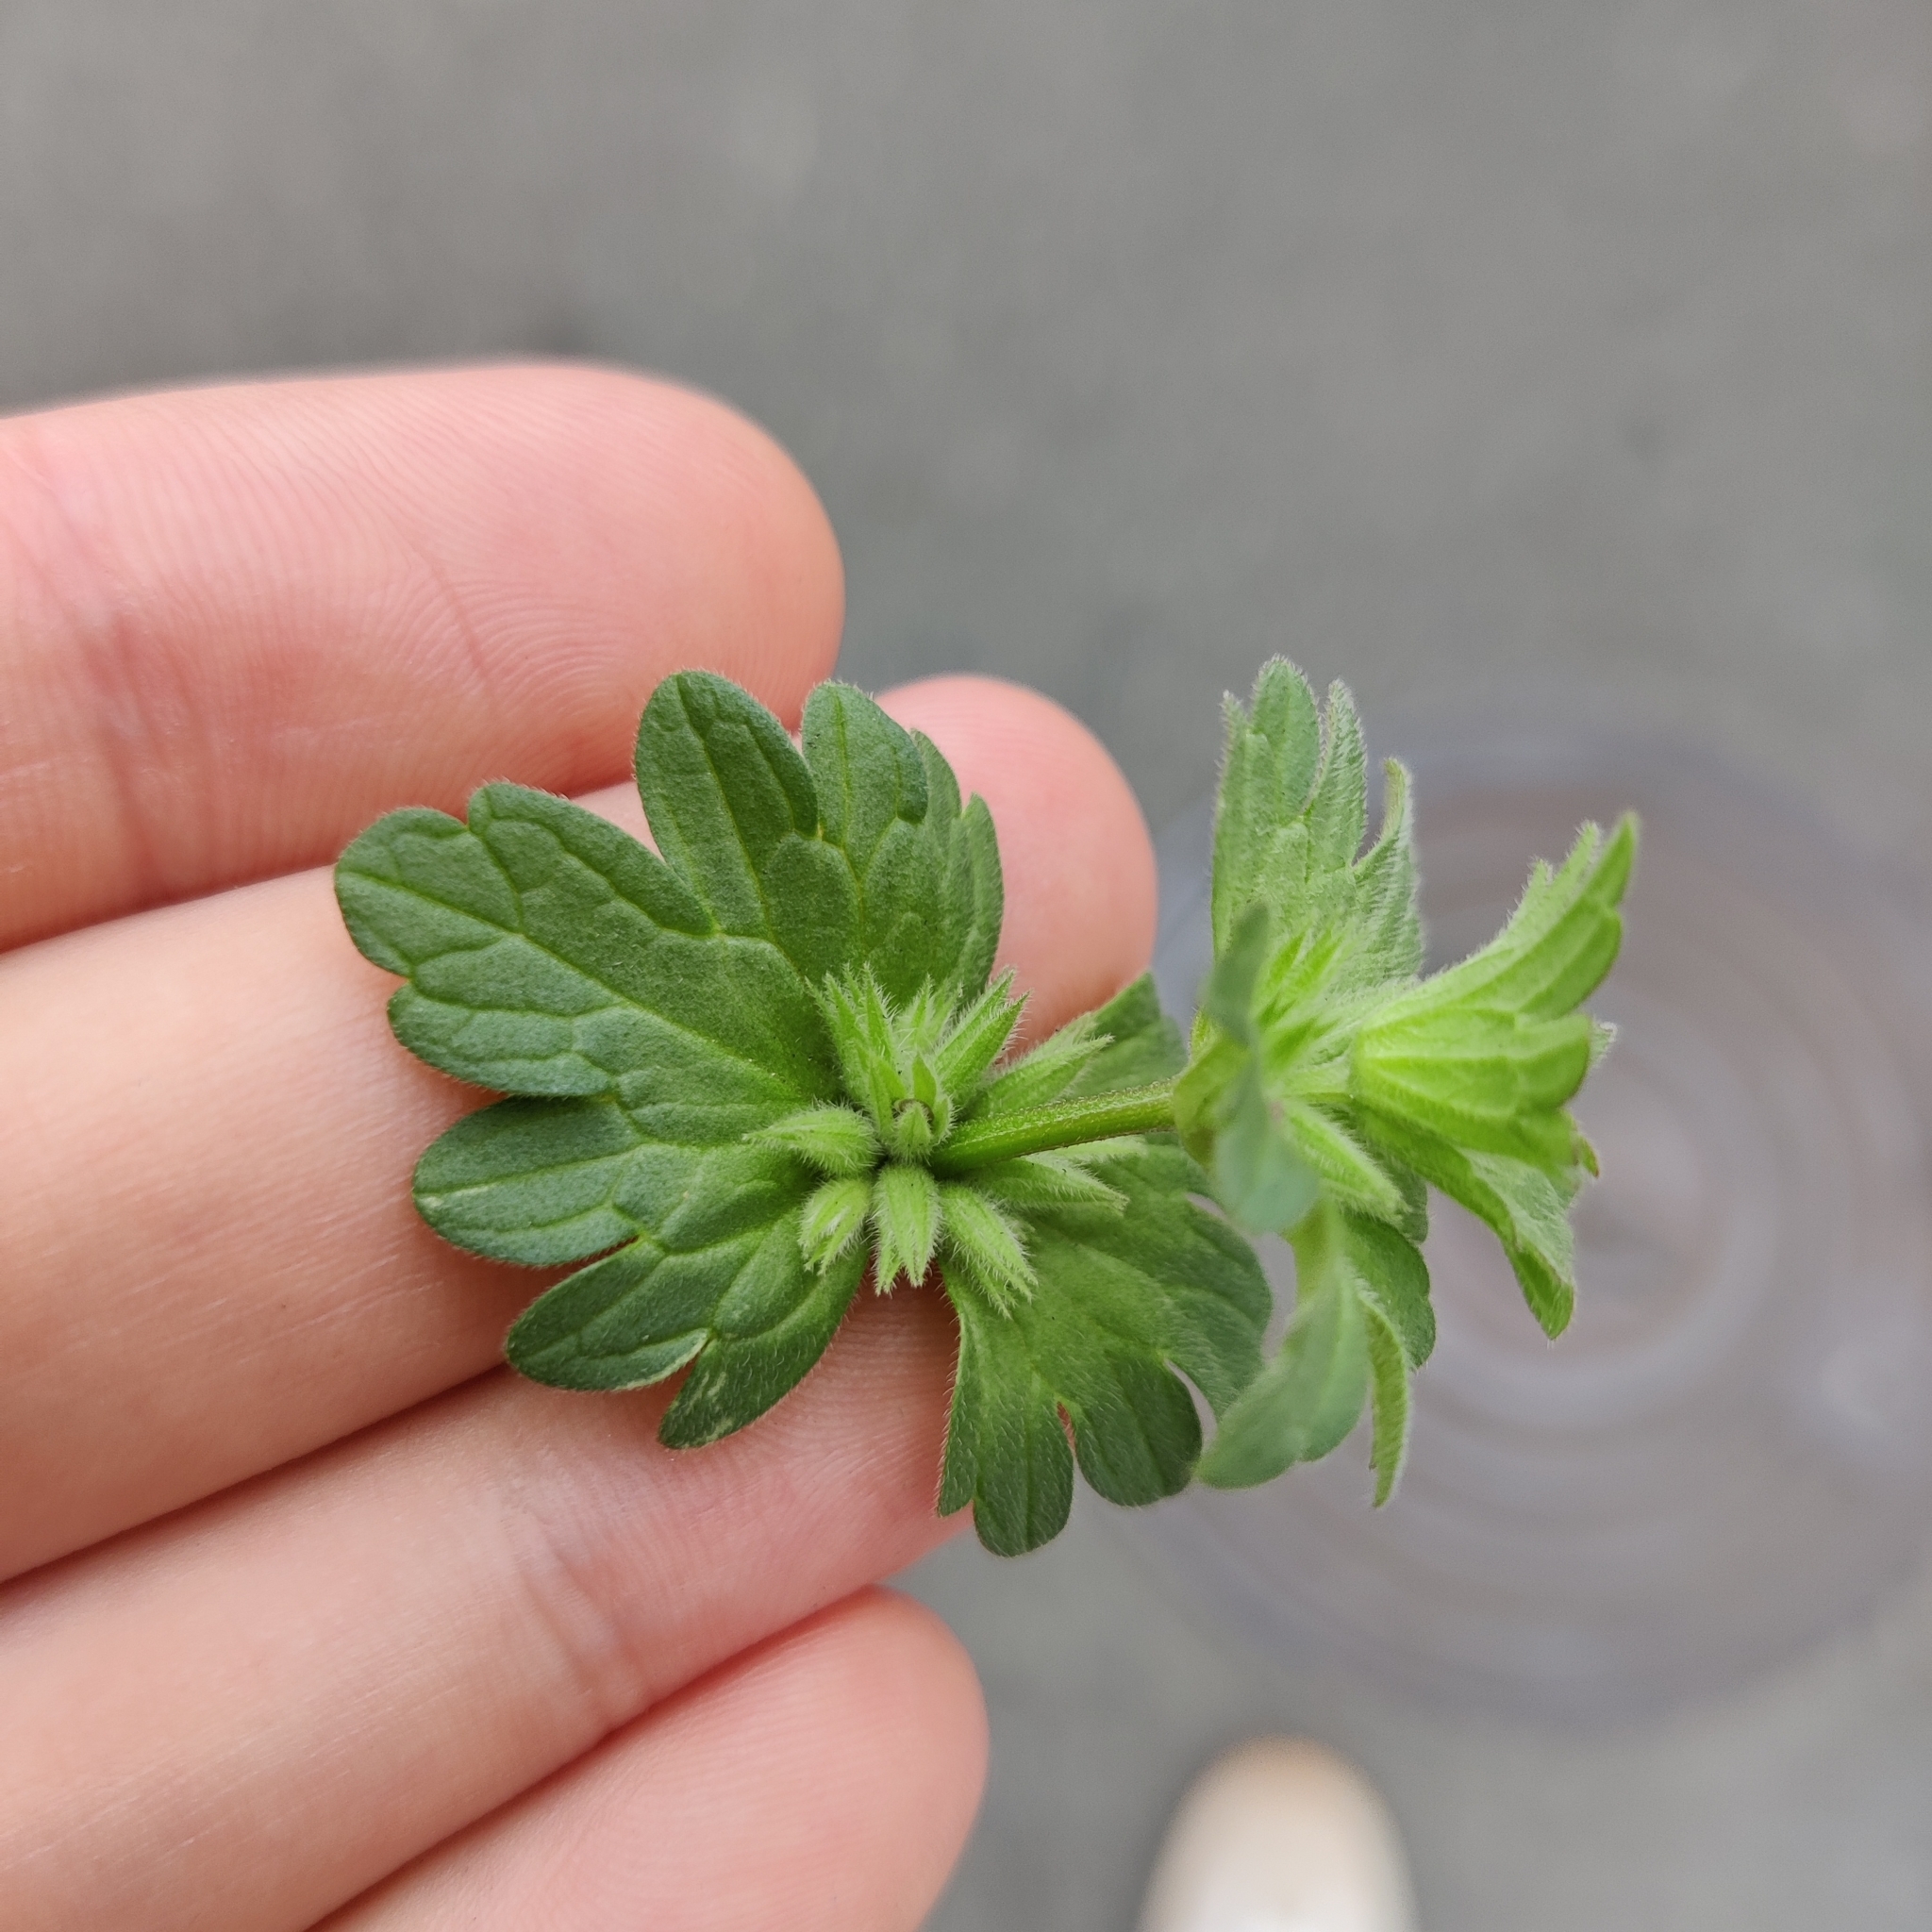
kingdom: Plantae
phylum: Tracheophyta
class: Magnoliopsida
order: Lamiales
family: Lamiaceae
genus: Lamium
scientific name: Lamium amplexicaule
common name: Henbit dead-nettle
